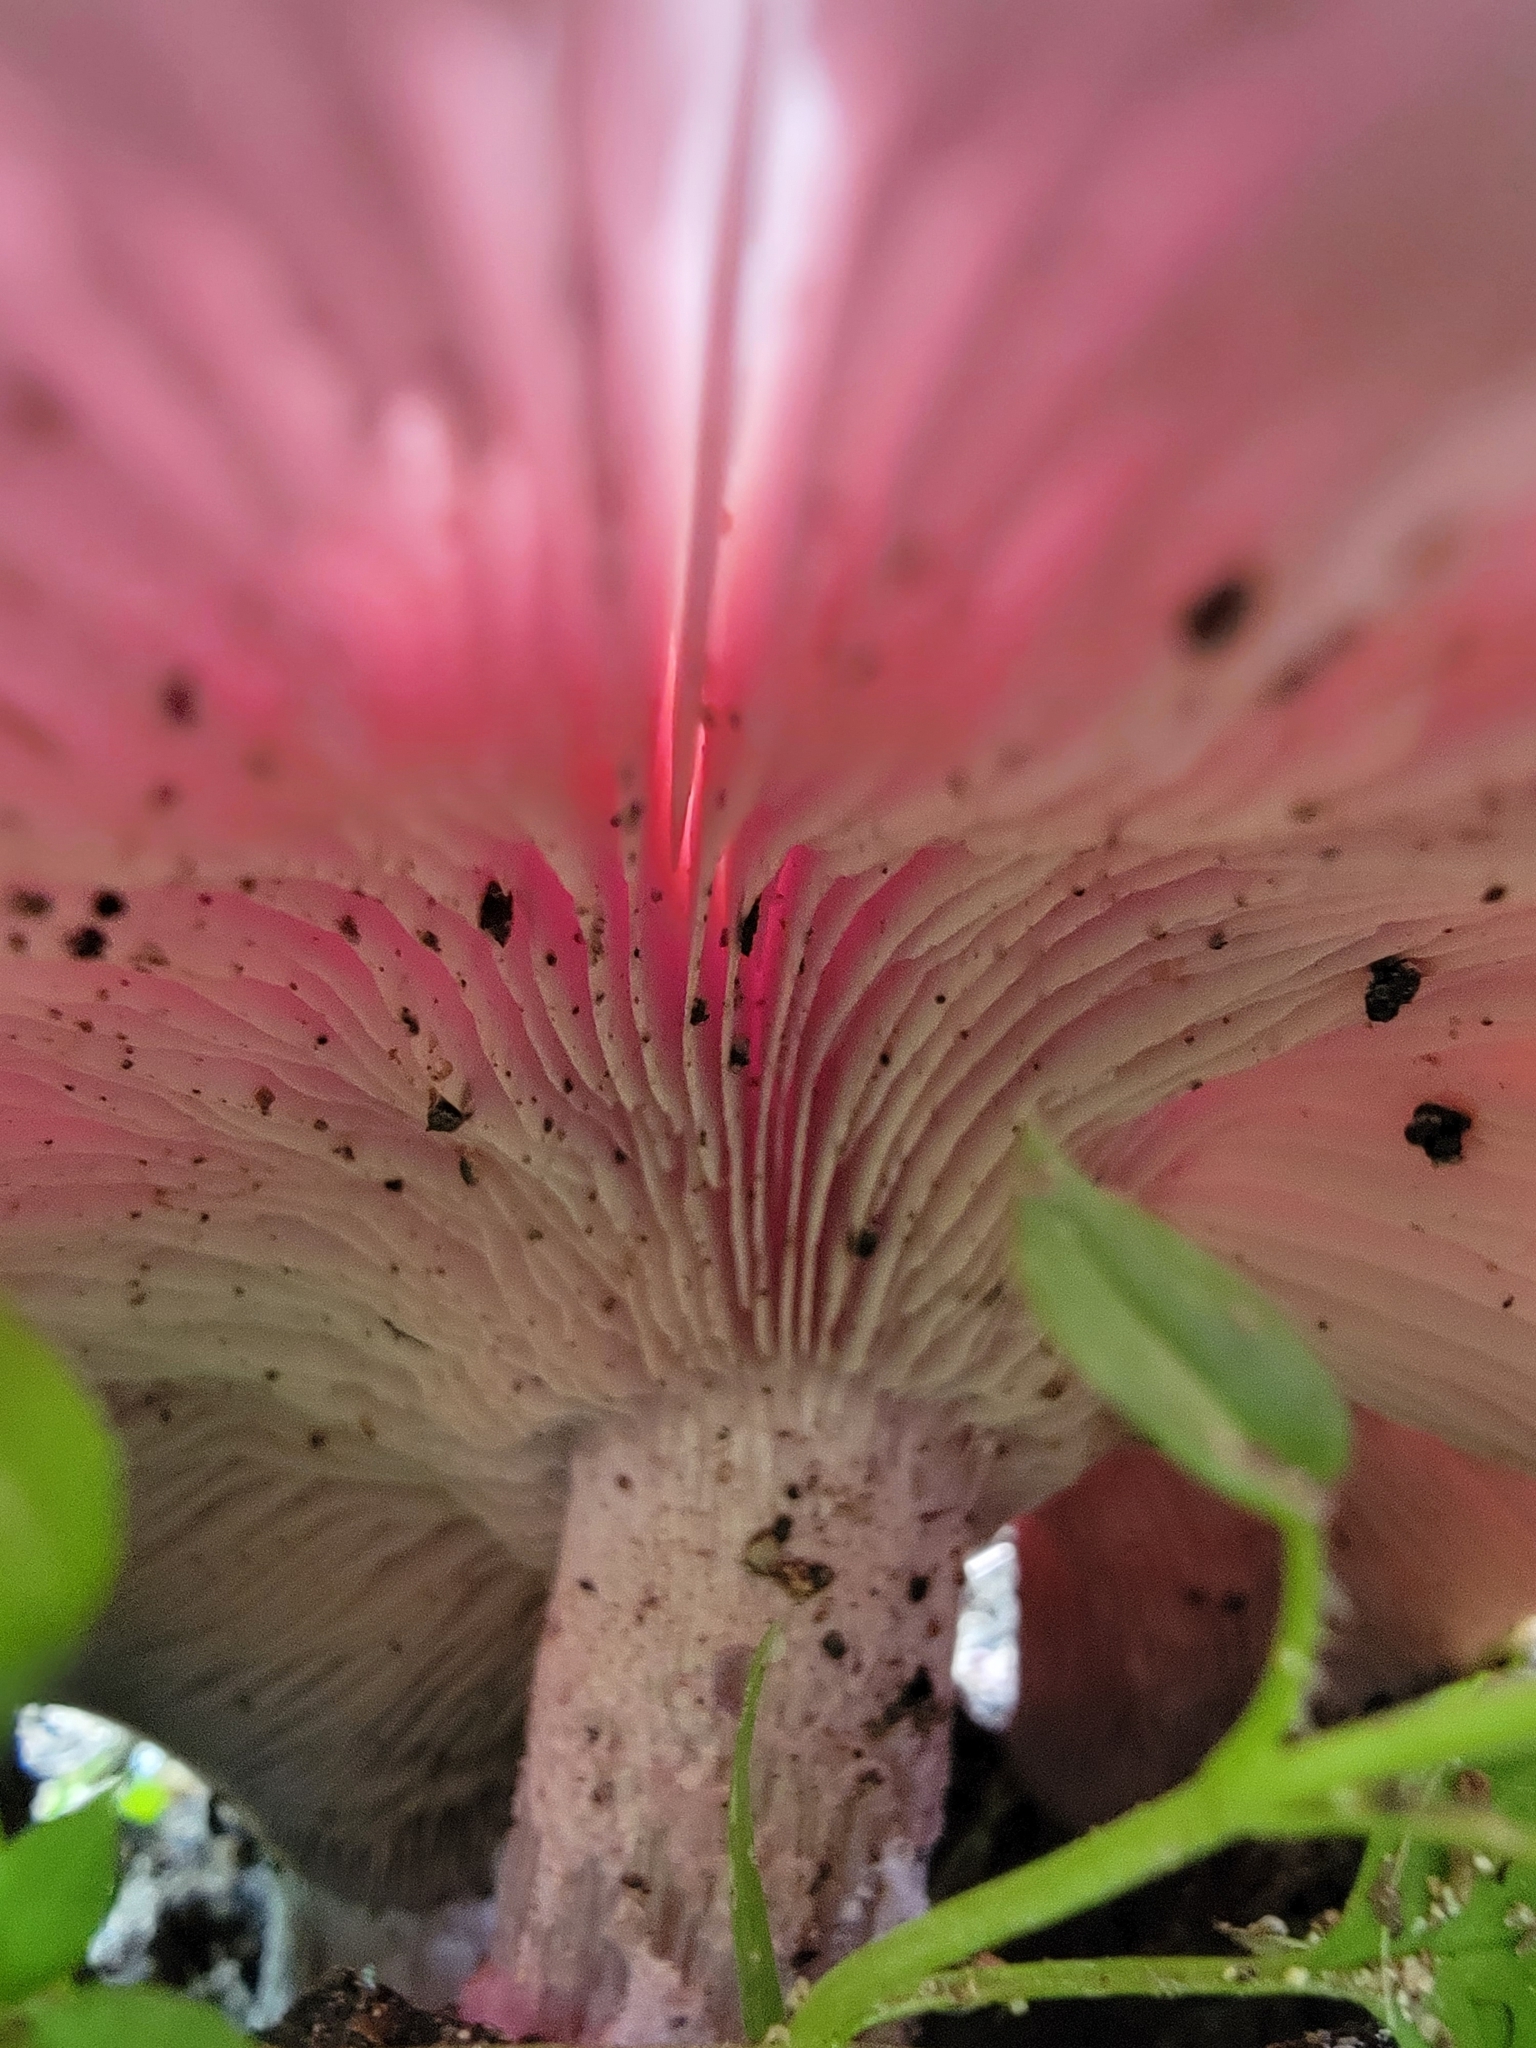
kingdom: Fungi
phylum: Basidiomycota
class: Agaricomycetes
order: Agaricales
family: Tricholomataceae
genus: Collybia
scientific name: Collybia
